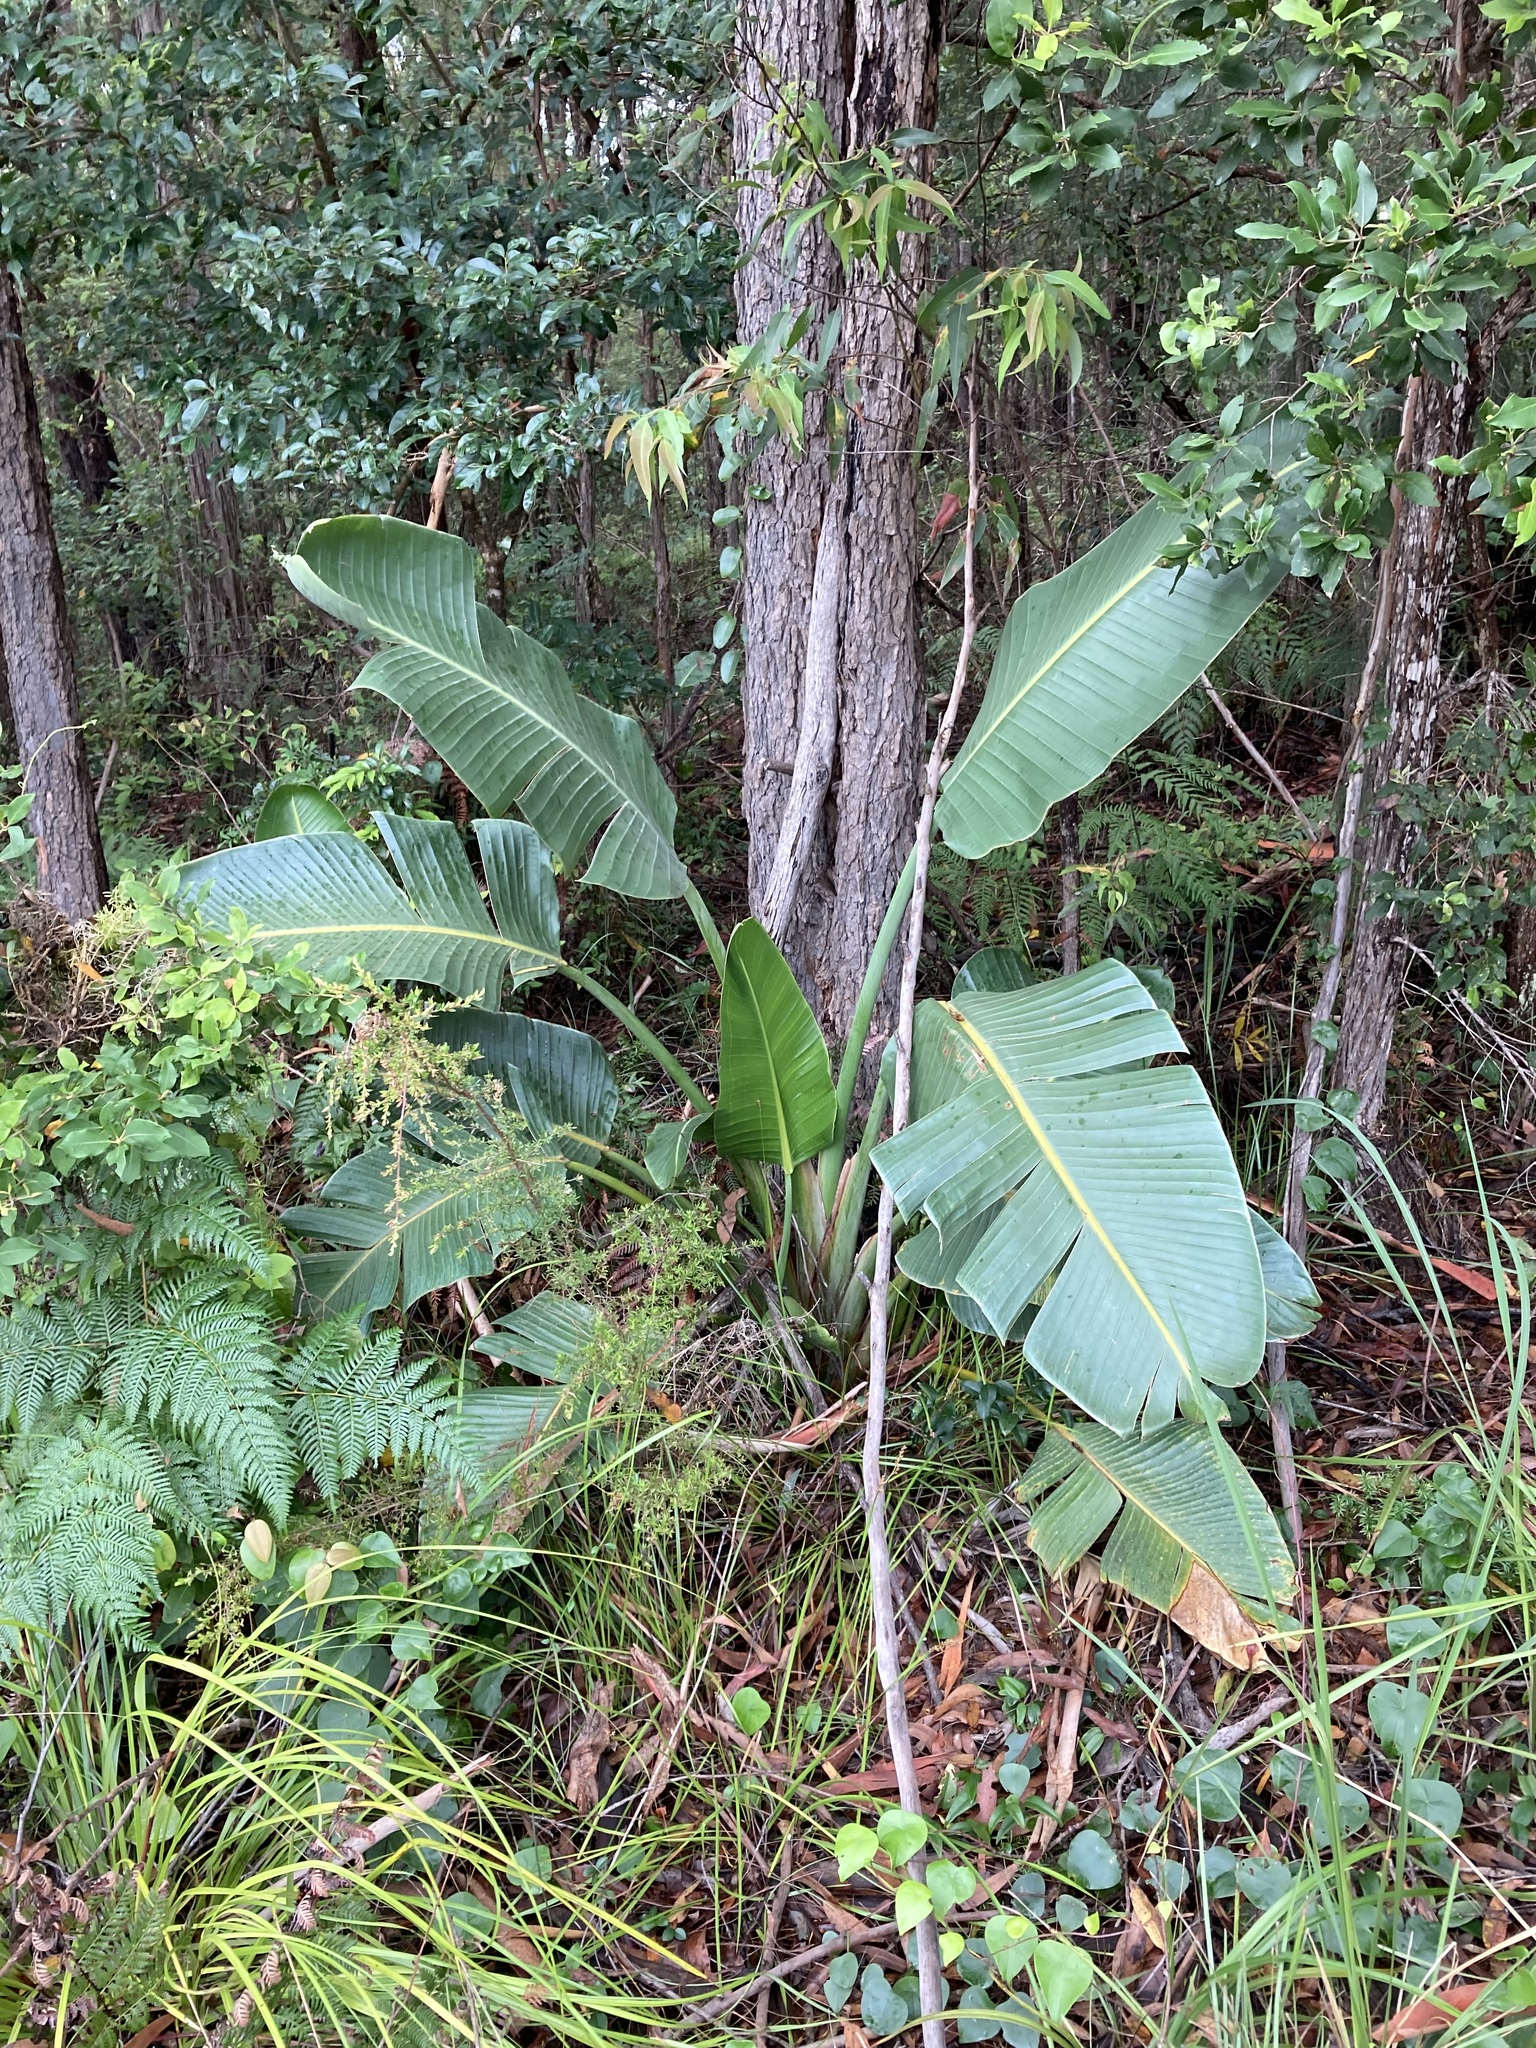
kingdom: Plantae
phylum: Tracheophyta
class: Liliopsida
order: Zingiberales
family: Strelitziaceae
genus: Strelitzia
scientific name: Strelitzia nicolai
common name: Bird-of-paradise tree
